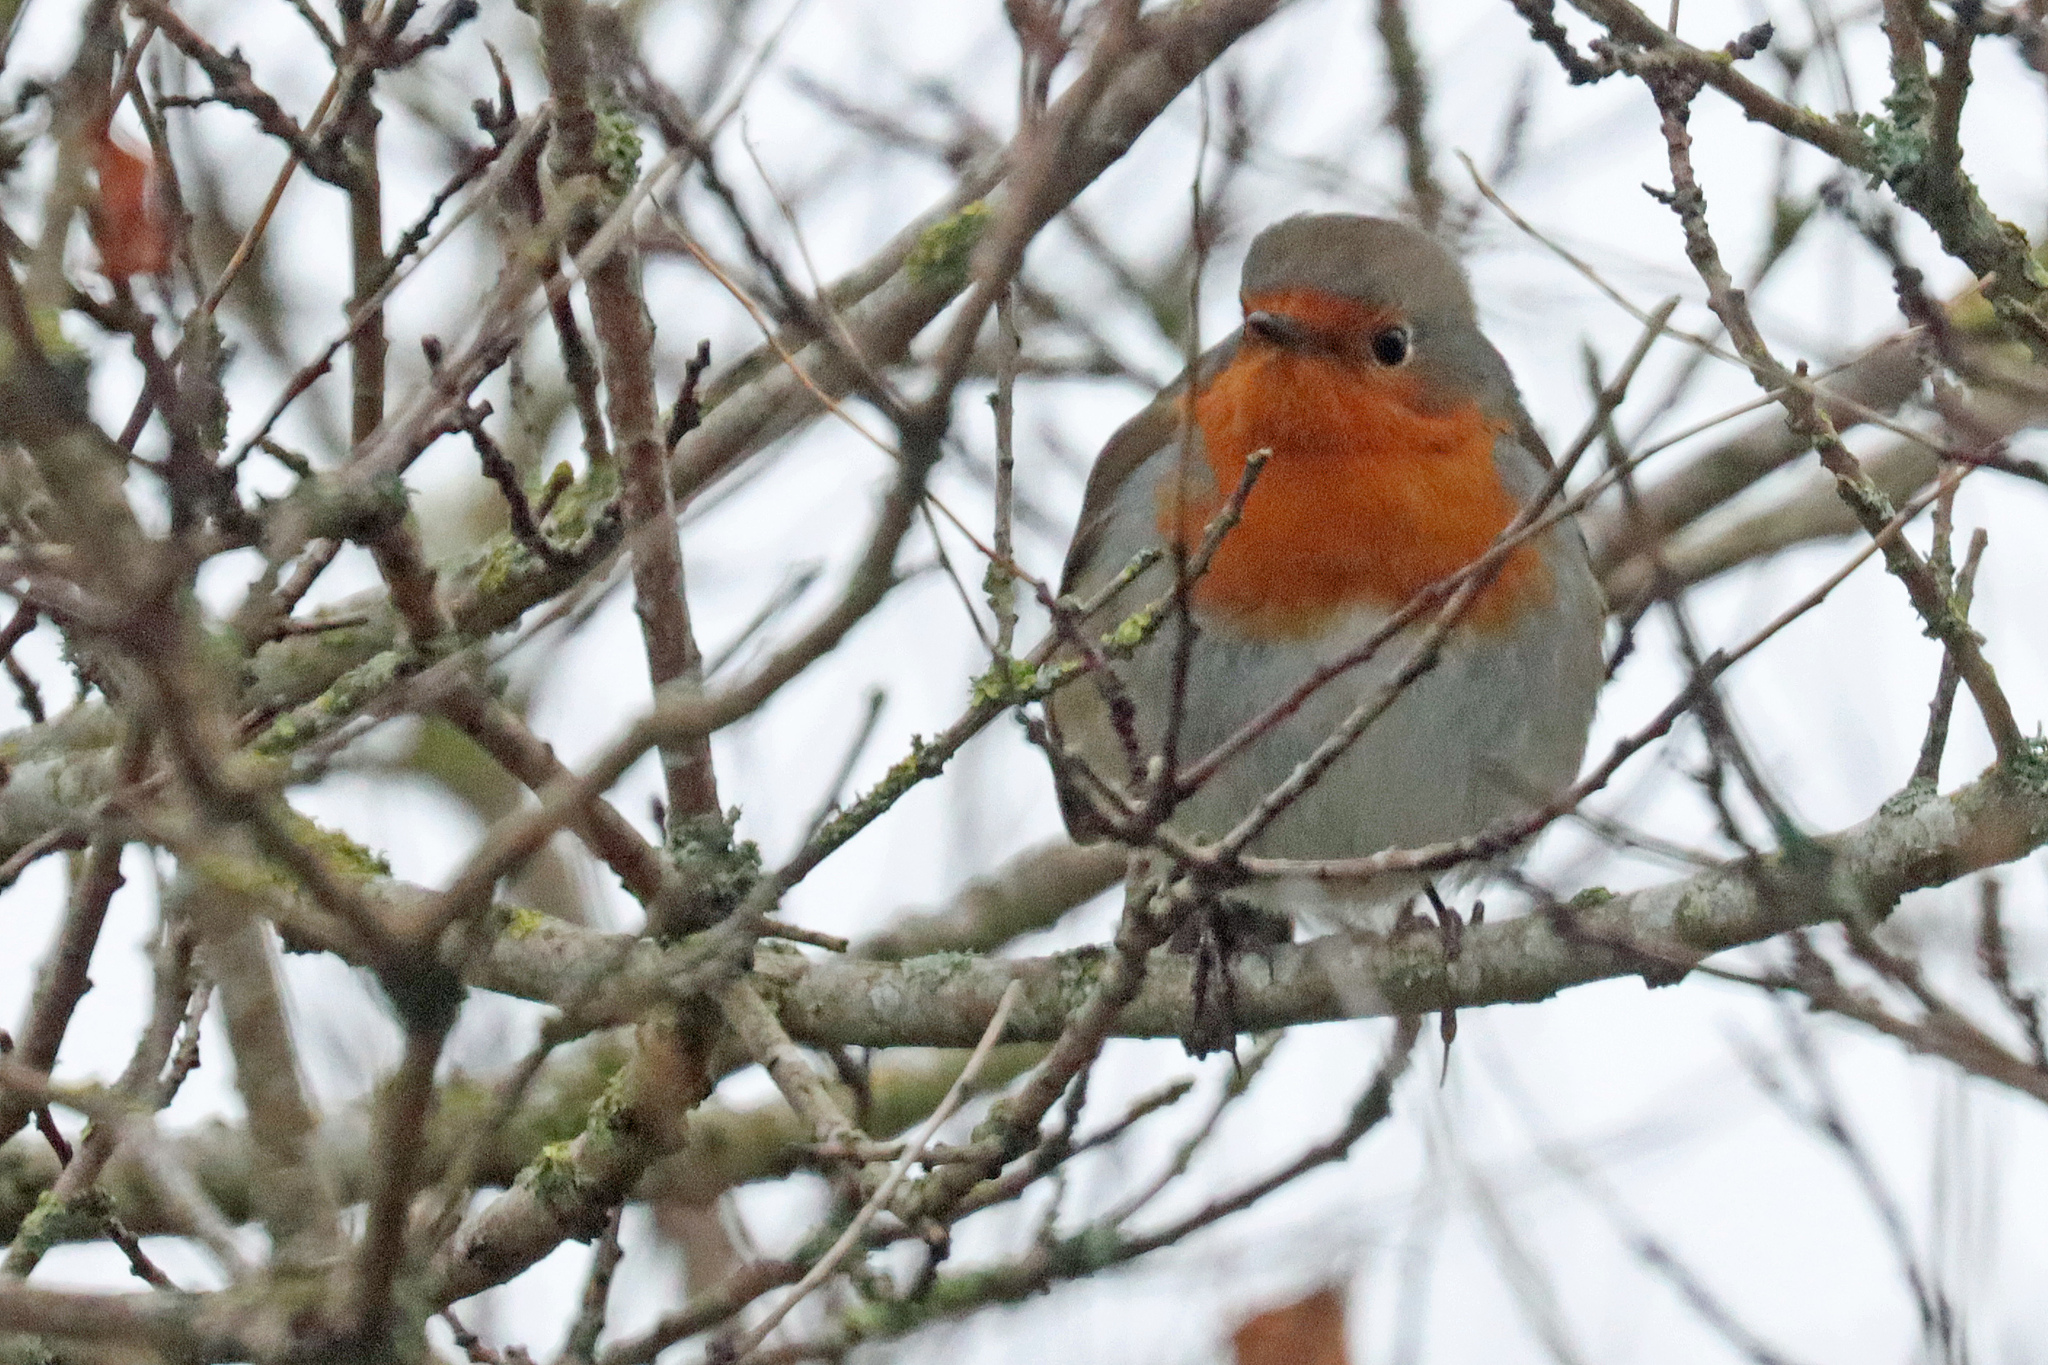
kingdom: Animalia
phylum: Chordata
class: Aves
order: Passeriformes
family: Muscicapidae
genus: Erithacus
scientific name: Erithacus rubecula
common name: European robin
